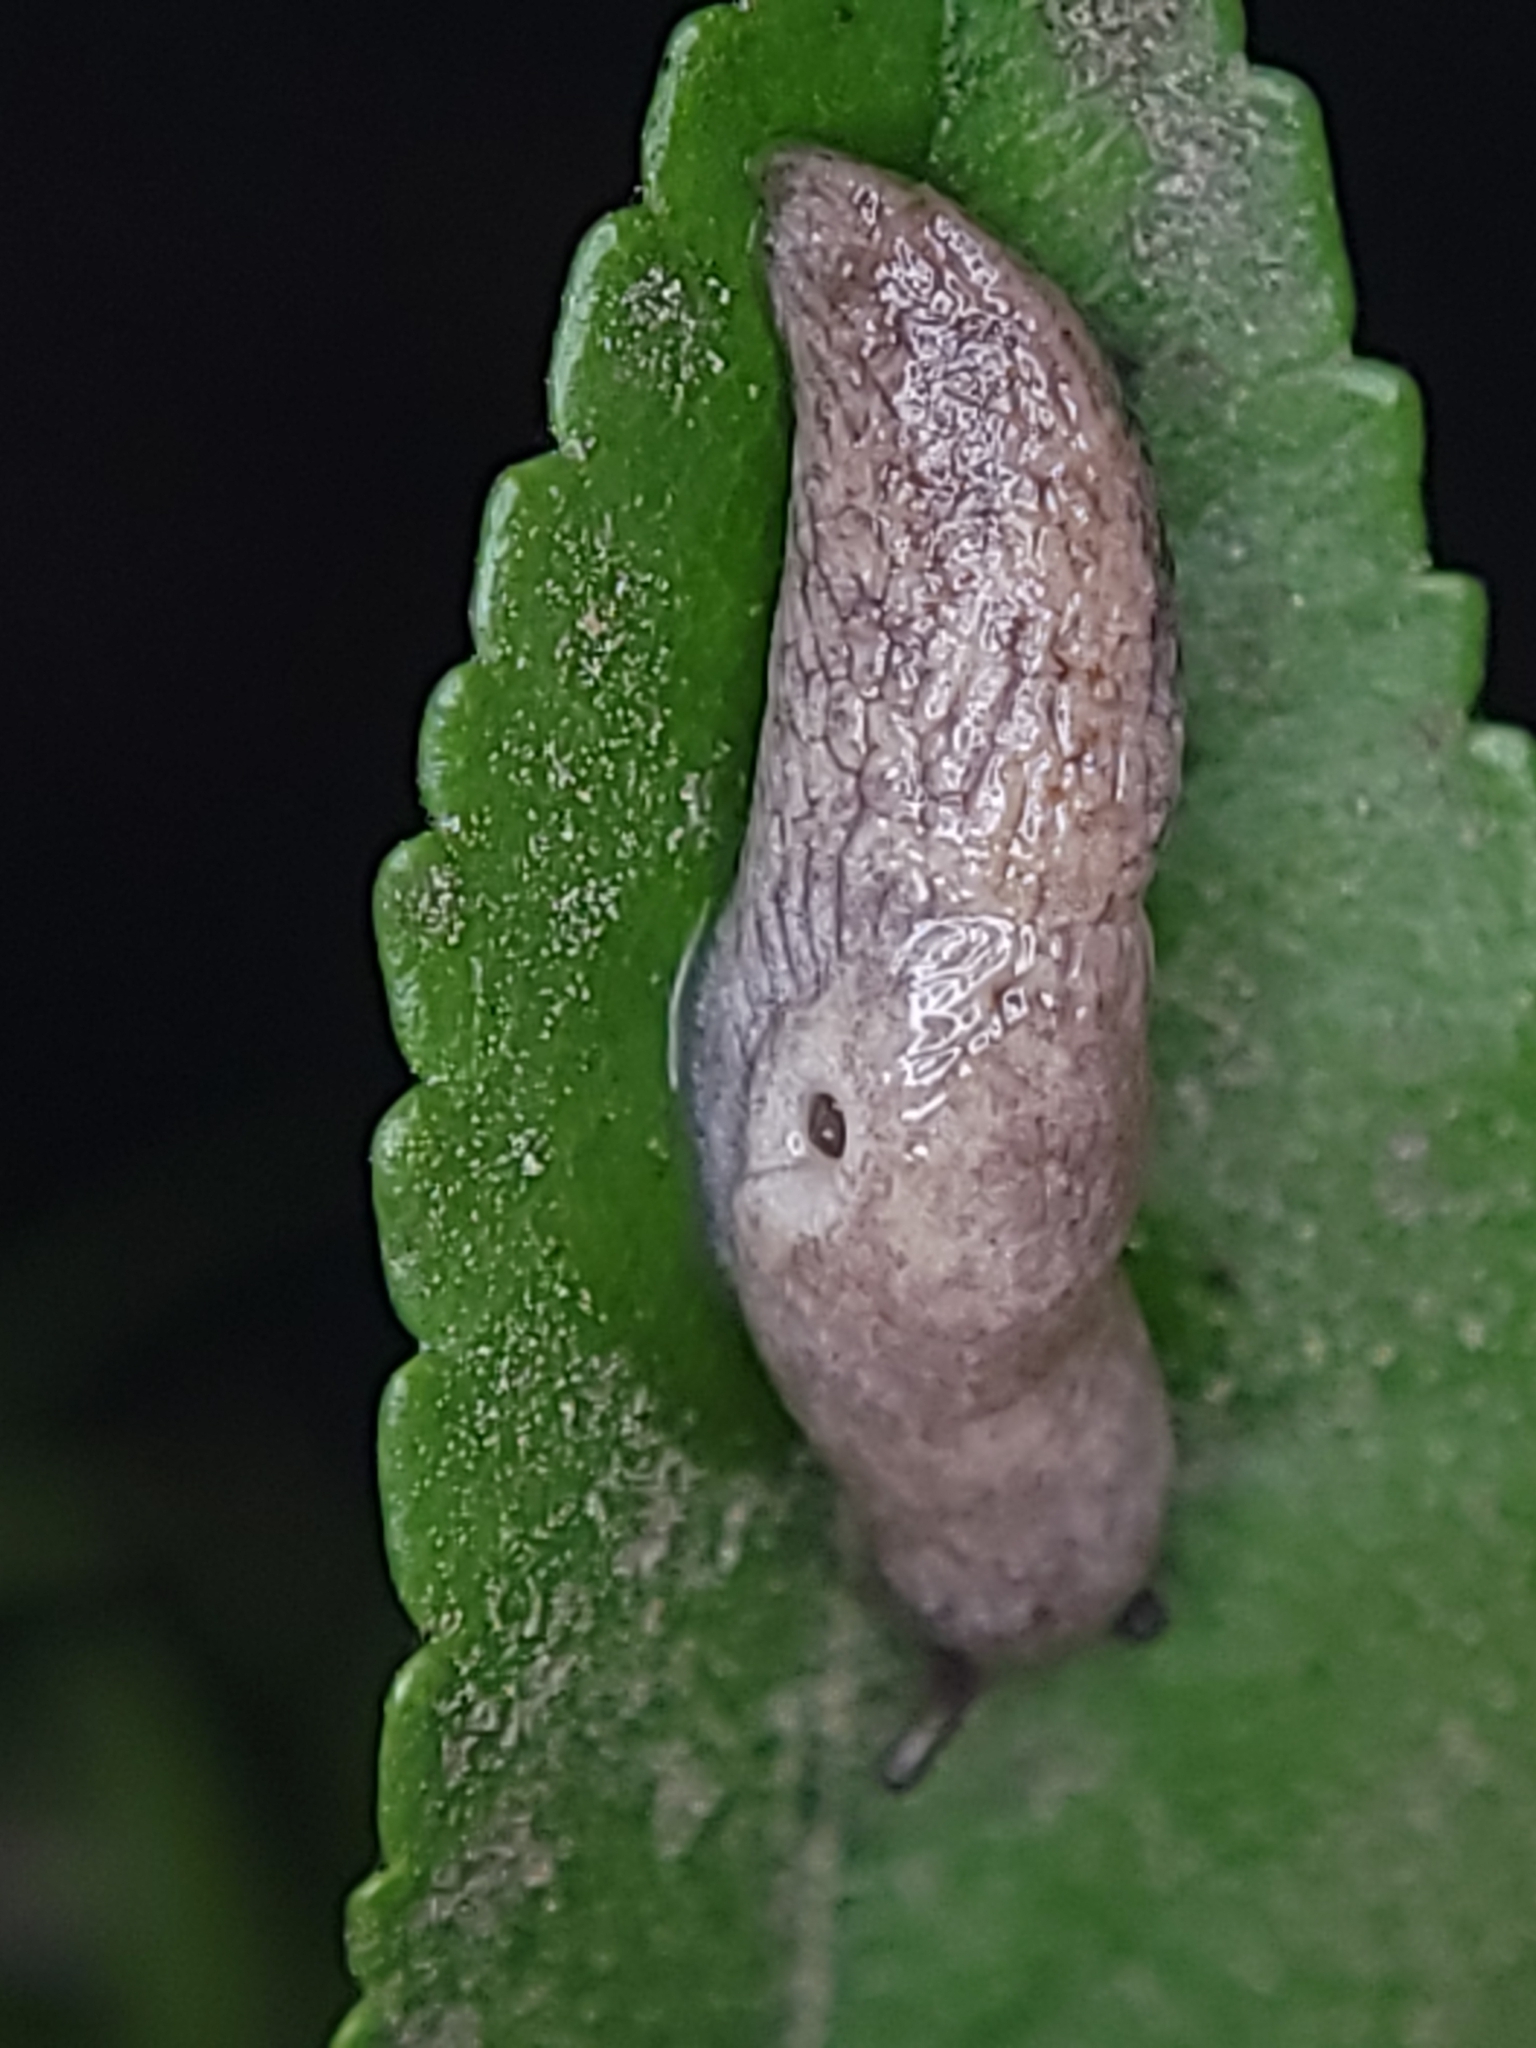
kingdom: Animalia
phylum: Mollusca
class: Gastropoda
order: Stylommatophora
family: Agriolimacidae
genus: Deroceras
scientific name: Deroceras reticulatum
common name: Gray field slug
